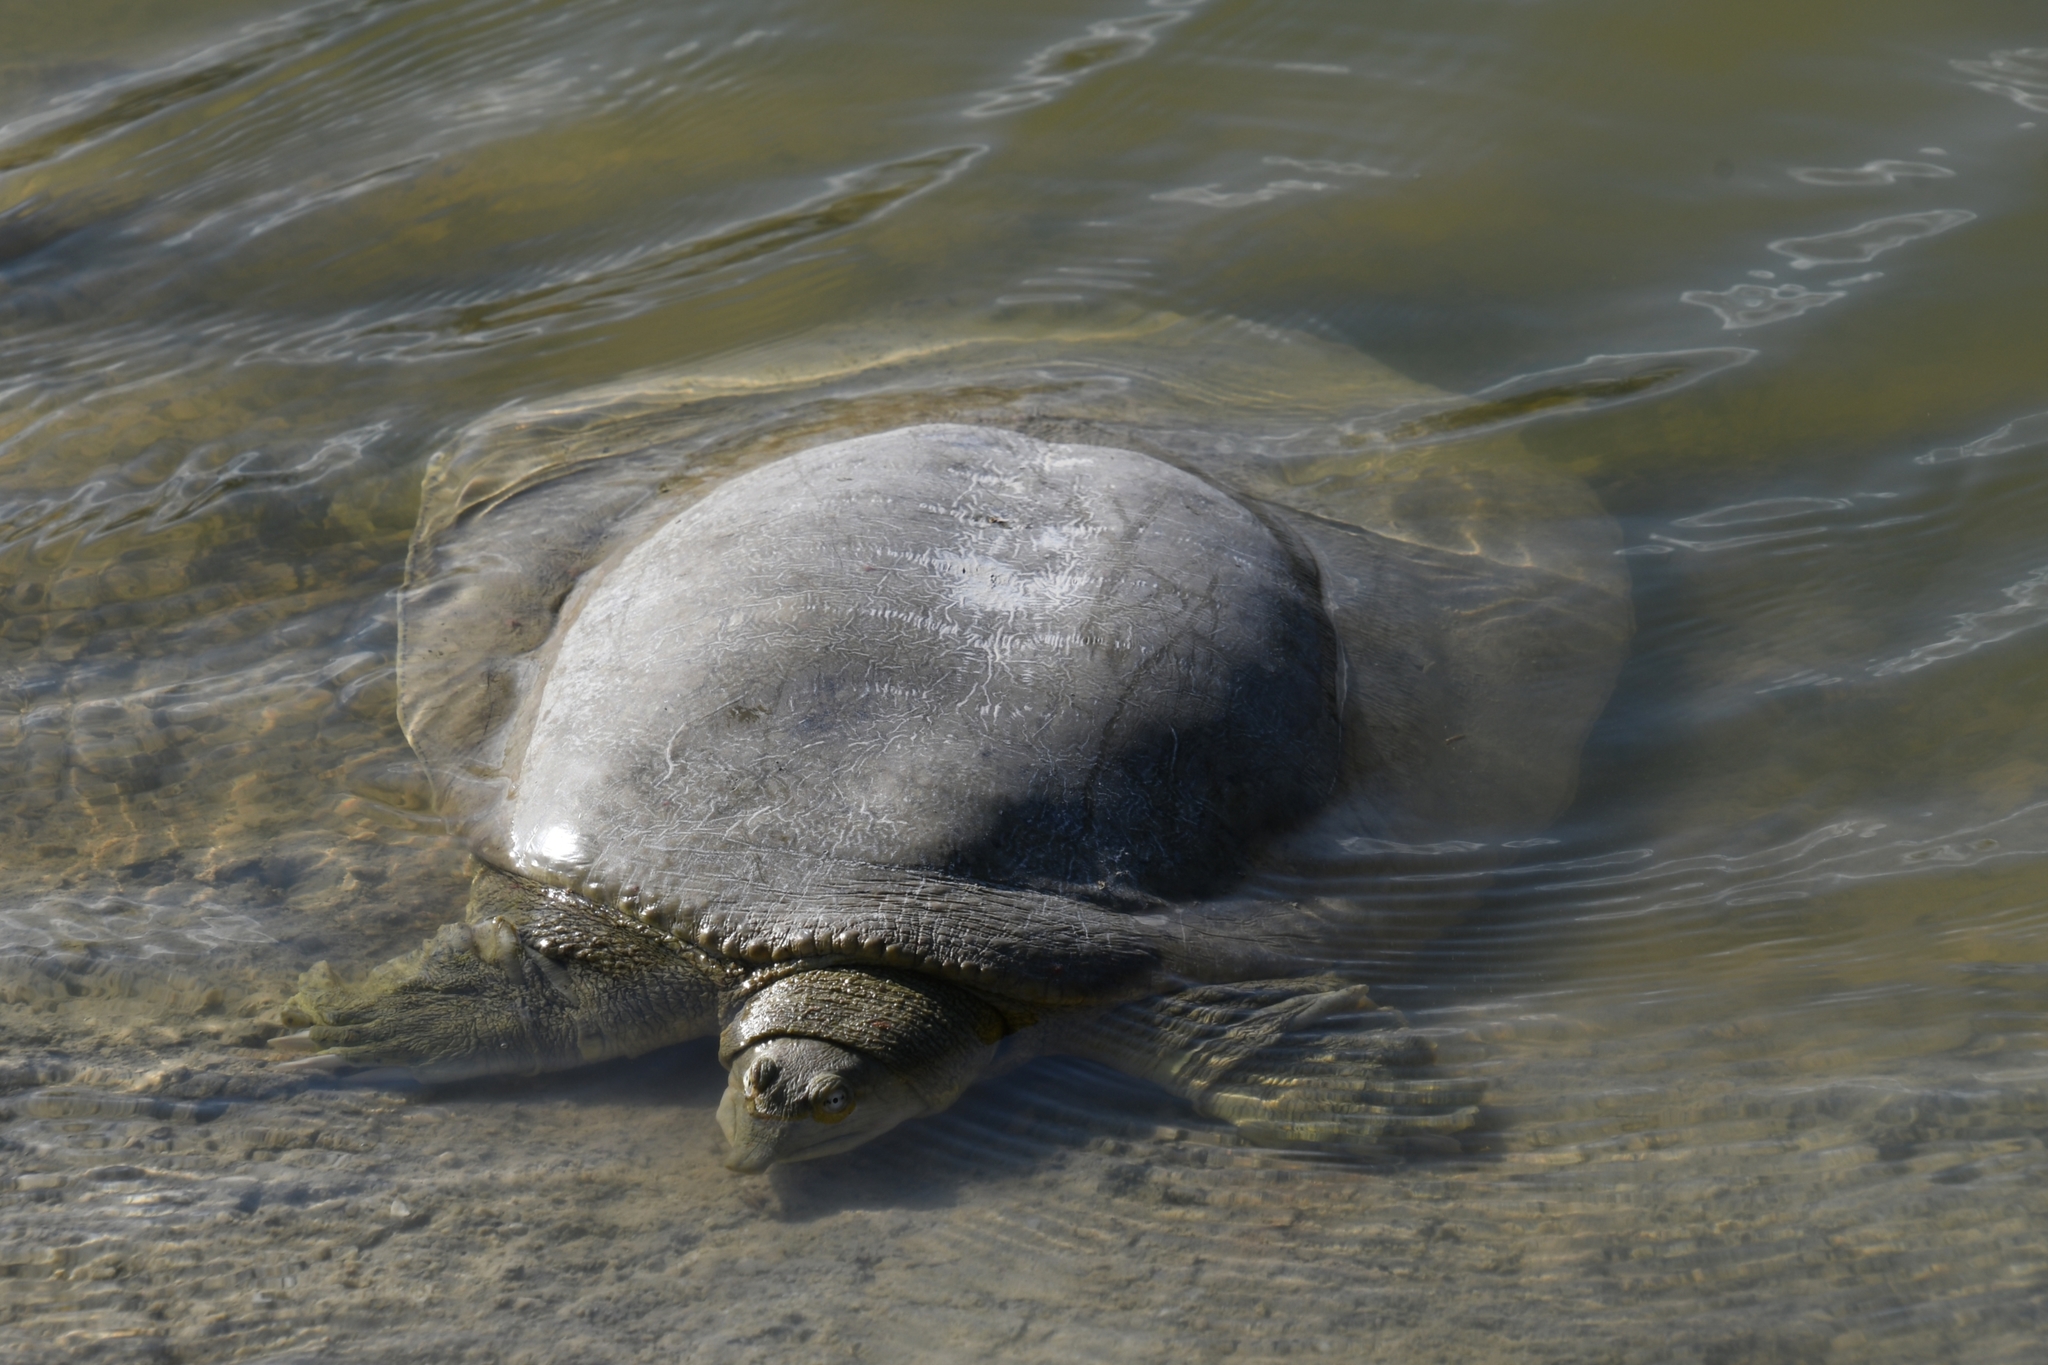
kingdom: Animalia
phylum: Chordata
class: Testudines
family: Trionychidae
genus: Apalone
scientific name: Apalone spinifera
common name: Spiny softshell turtle
